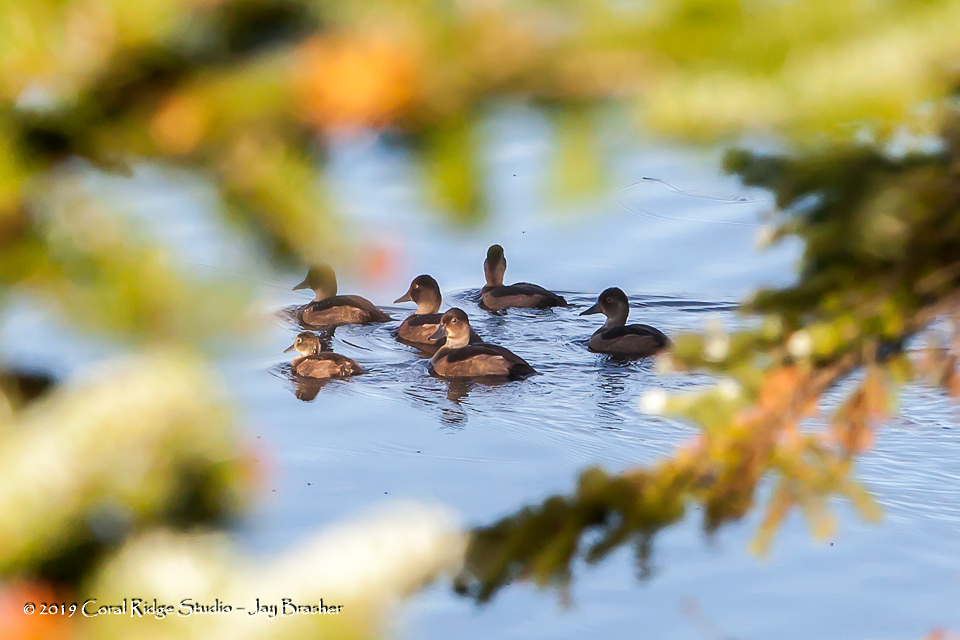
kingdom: Animalia
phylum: Chordata
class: Aves
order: Anseriformes
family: Anatidae
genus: Aythya
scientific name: Aythya collaris
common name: Ring-necked duck
